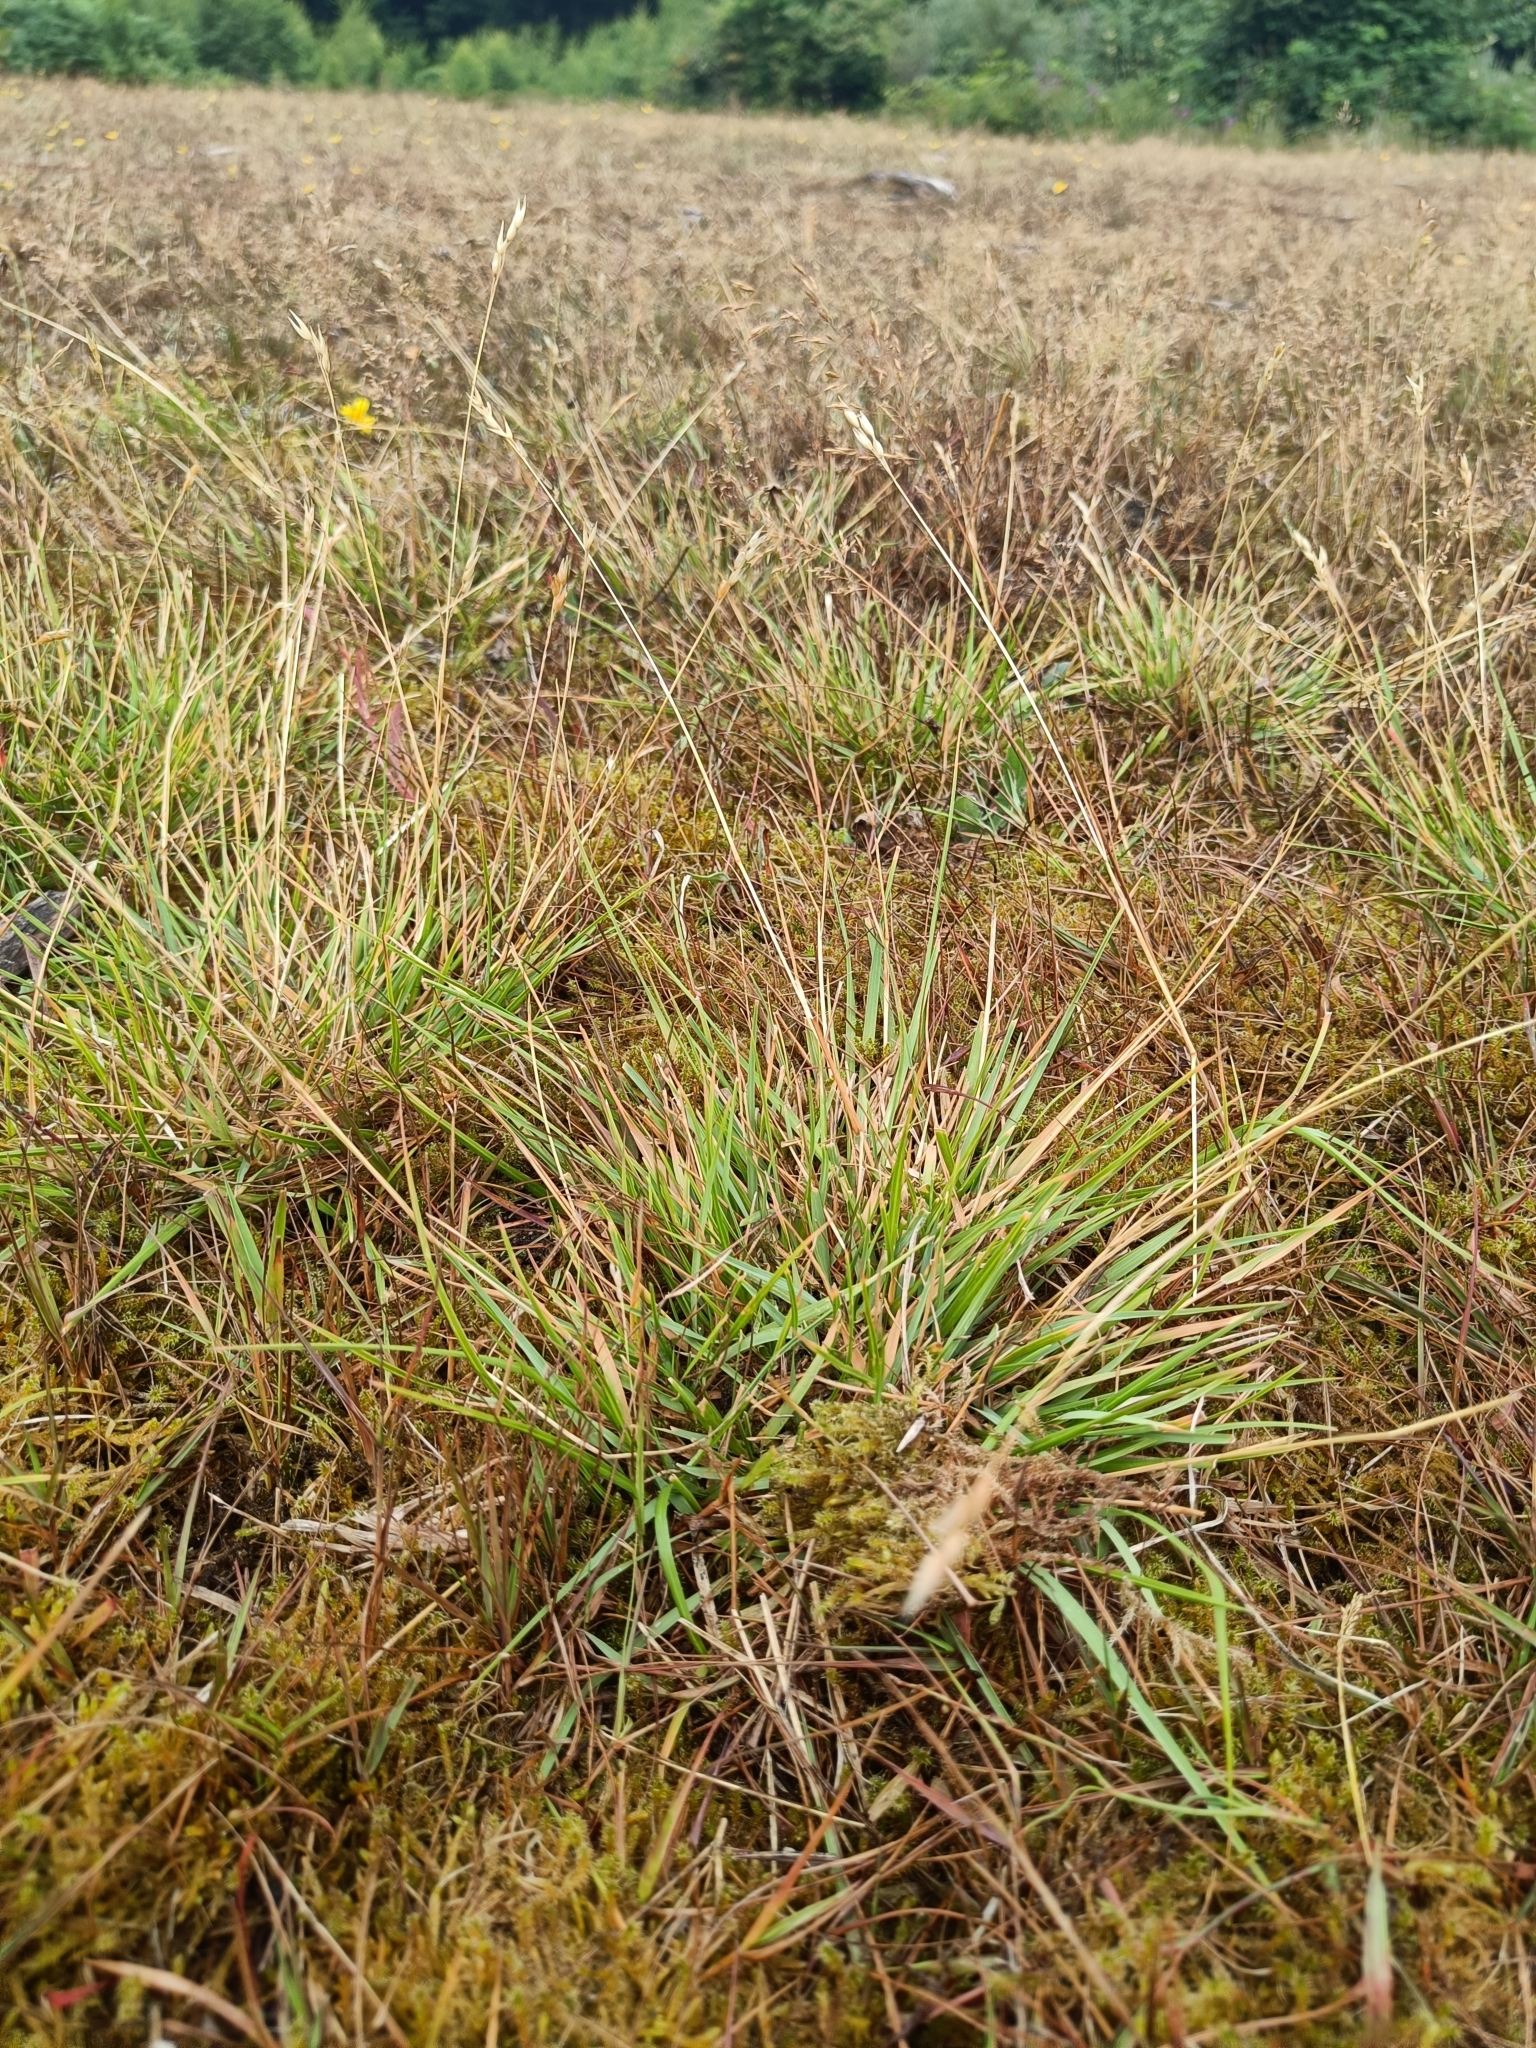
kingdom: Plantae
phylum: Tracheophyta
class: Liliopsida
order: Poales
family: Poaceae
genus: Danthonia
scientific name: Danthonia decumbens
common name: Common heathgrass
